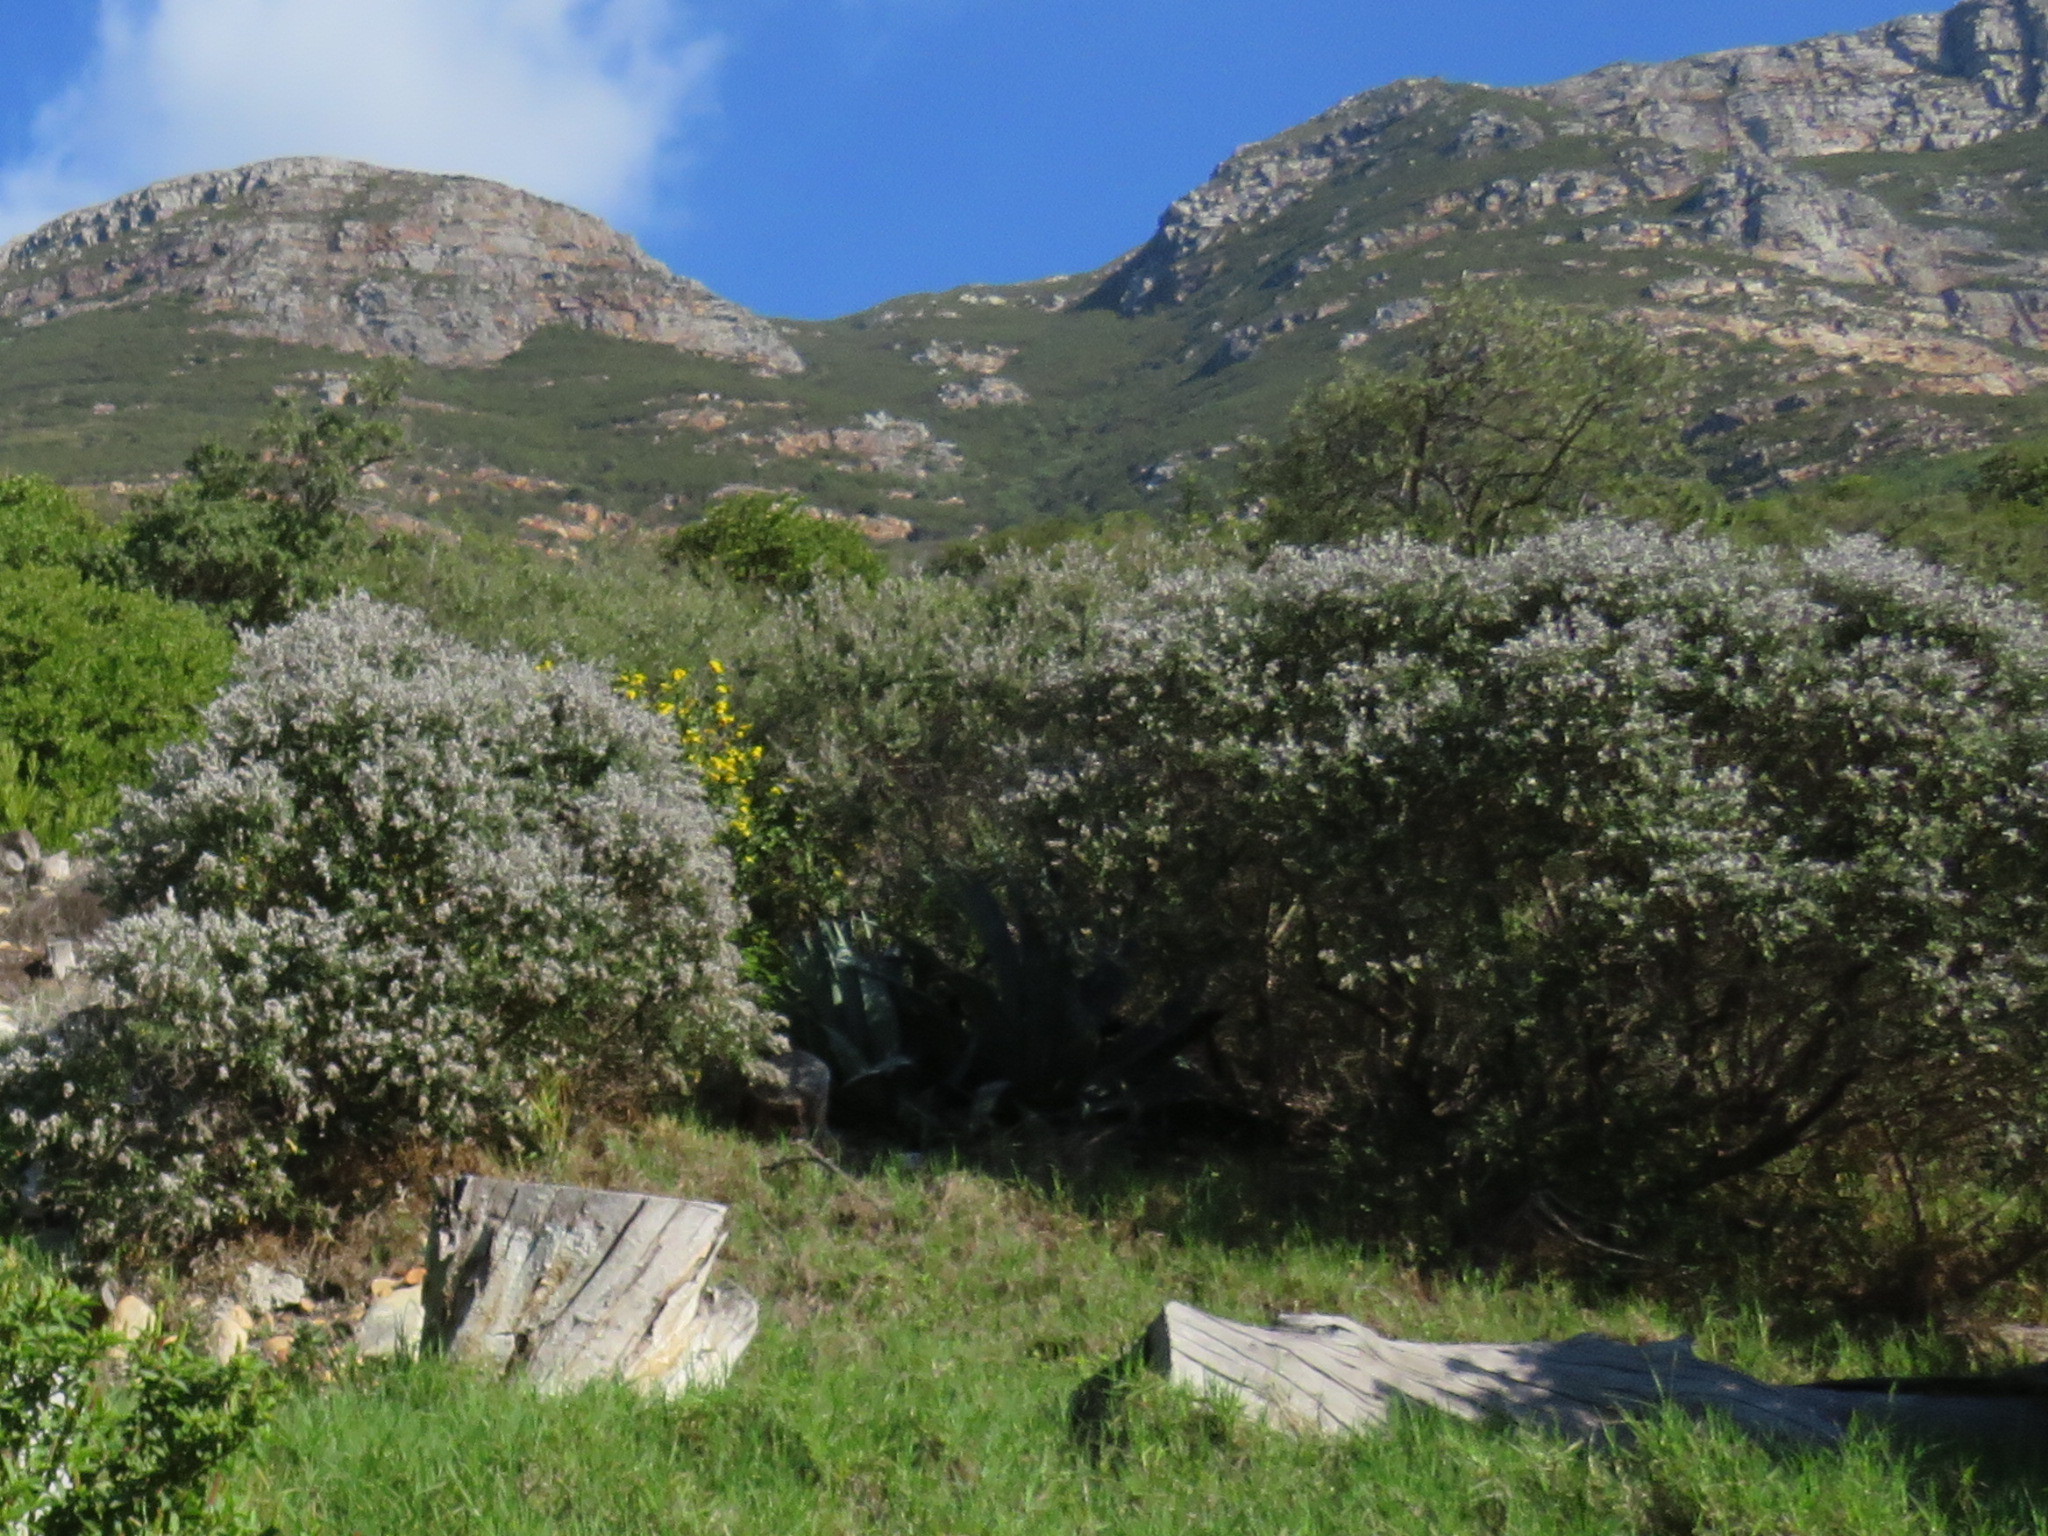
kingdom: Plantae
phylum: Tracheophyta
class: Magnoliopsida
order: Asterales
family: Asteraceae
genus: Tarchonanthus
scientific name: Tarchonanthus littoralis
